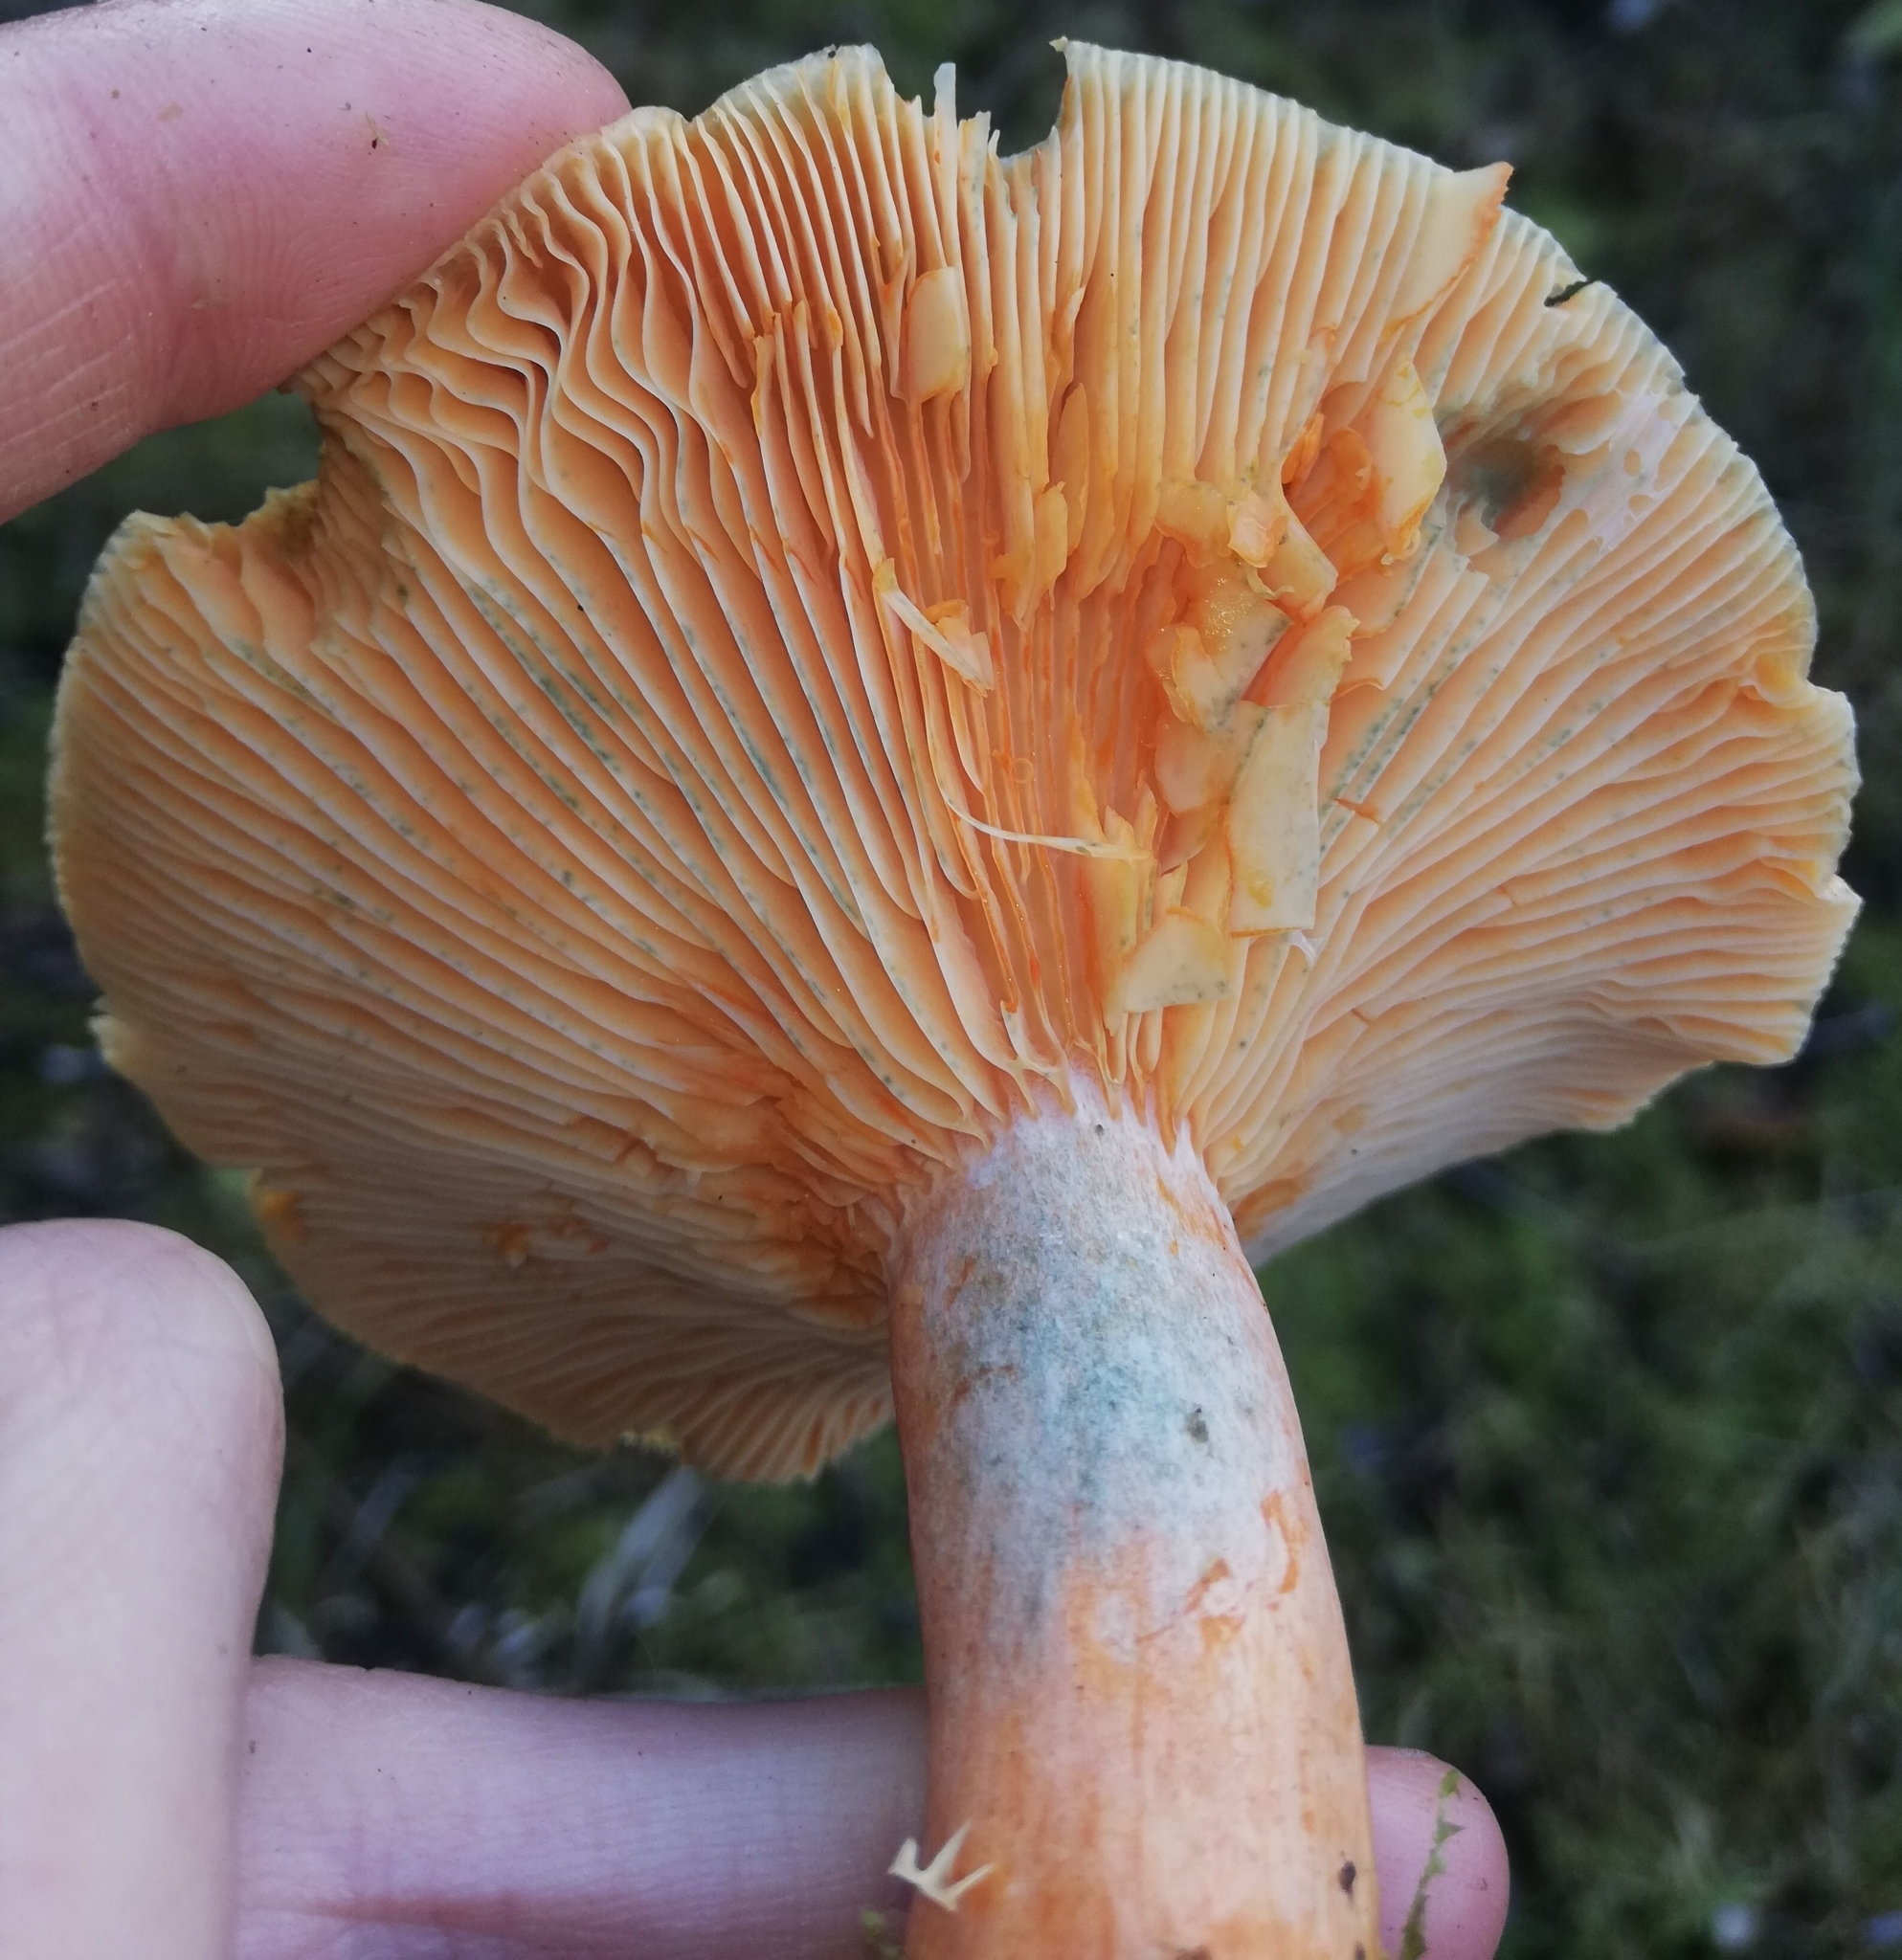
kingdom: Fungi
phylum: Basidiomycota
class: Agaricomycetes
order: Russulales
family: Russulaceae
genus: Lactarius
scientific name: Lactarius deterrimus
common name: False saffron milkcap
